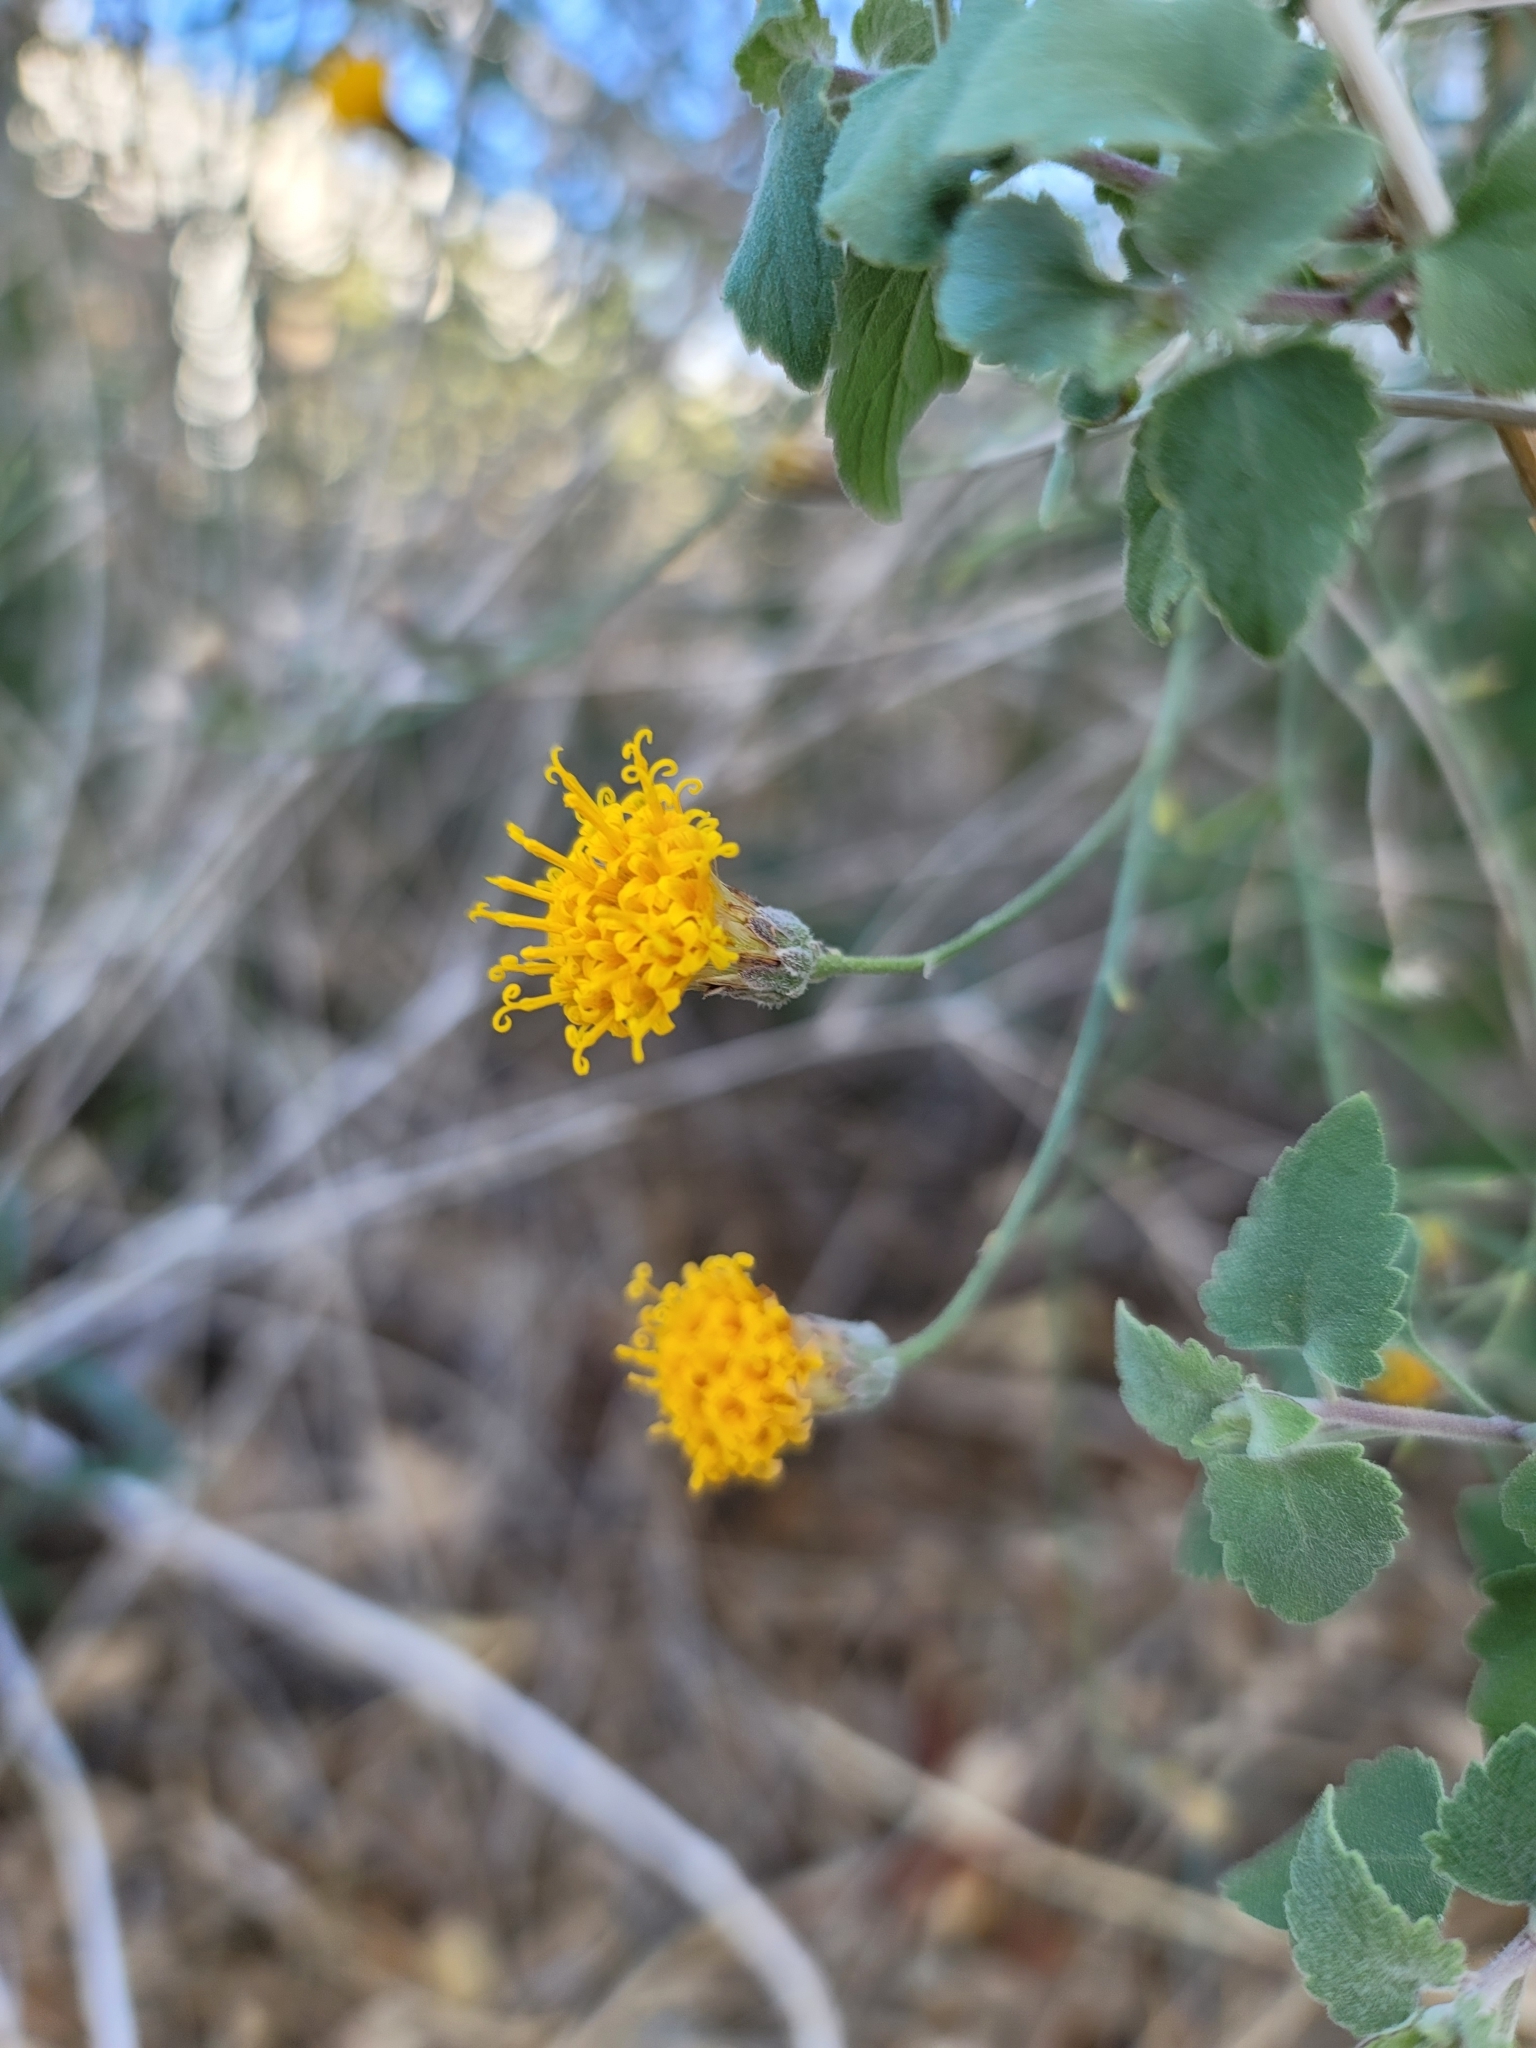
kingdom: Plantae
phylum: Tracheophyta
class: Magnoliopsida
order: Asterales
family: Asteraceae
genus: Bebbia
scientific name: Bebbia juncea
